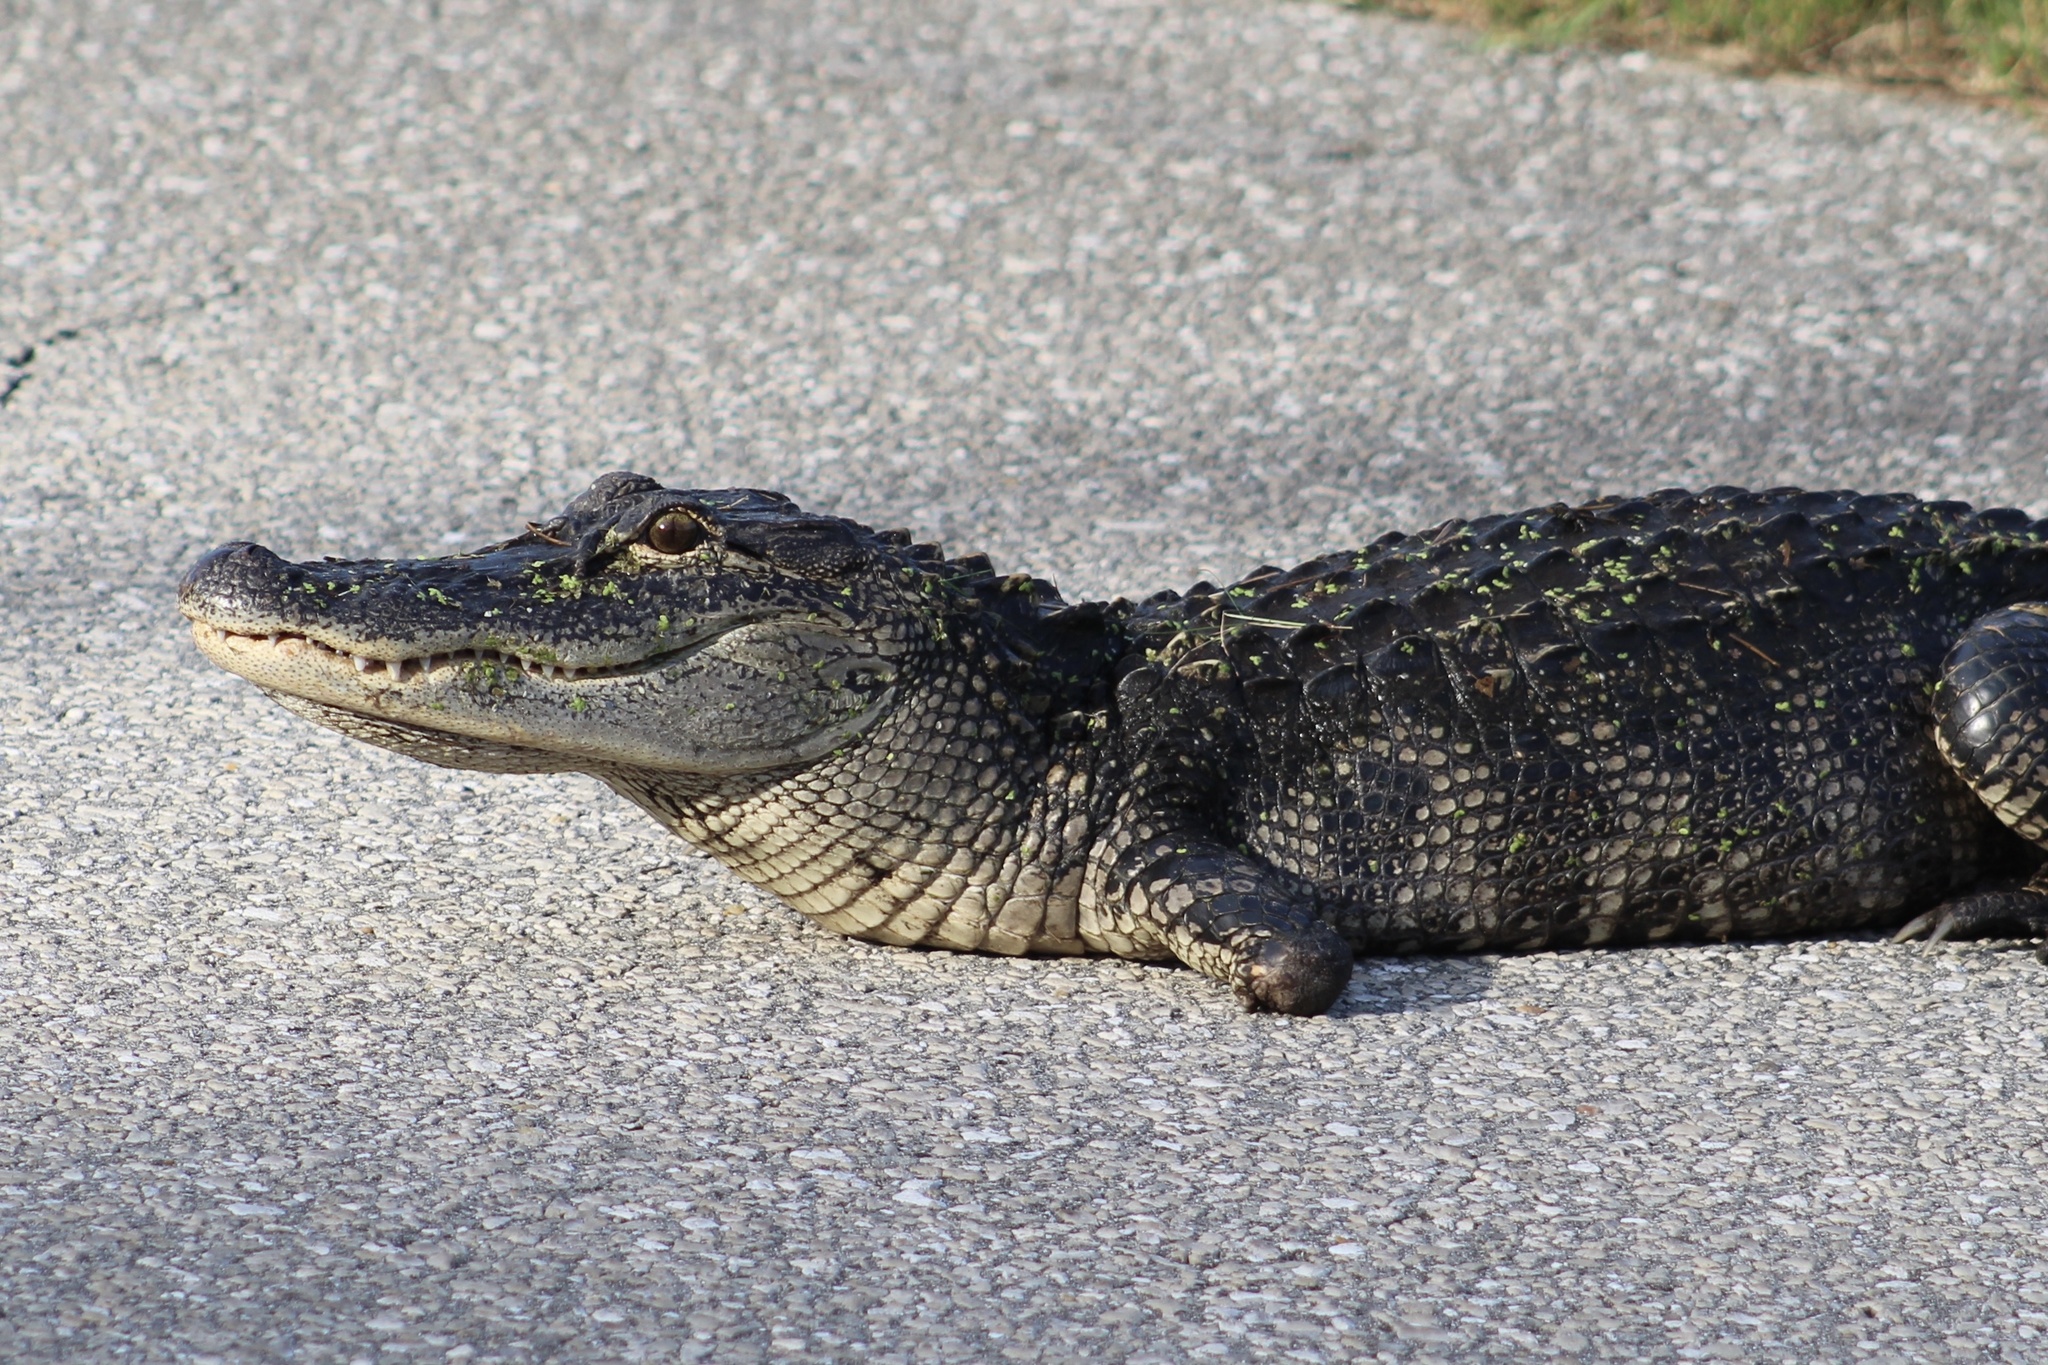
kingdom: Animalia
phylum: Chordata
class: Crocodylia
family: Alligatoridae
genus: Alligator
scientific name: Alligator mississippiensis
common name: American alligator
